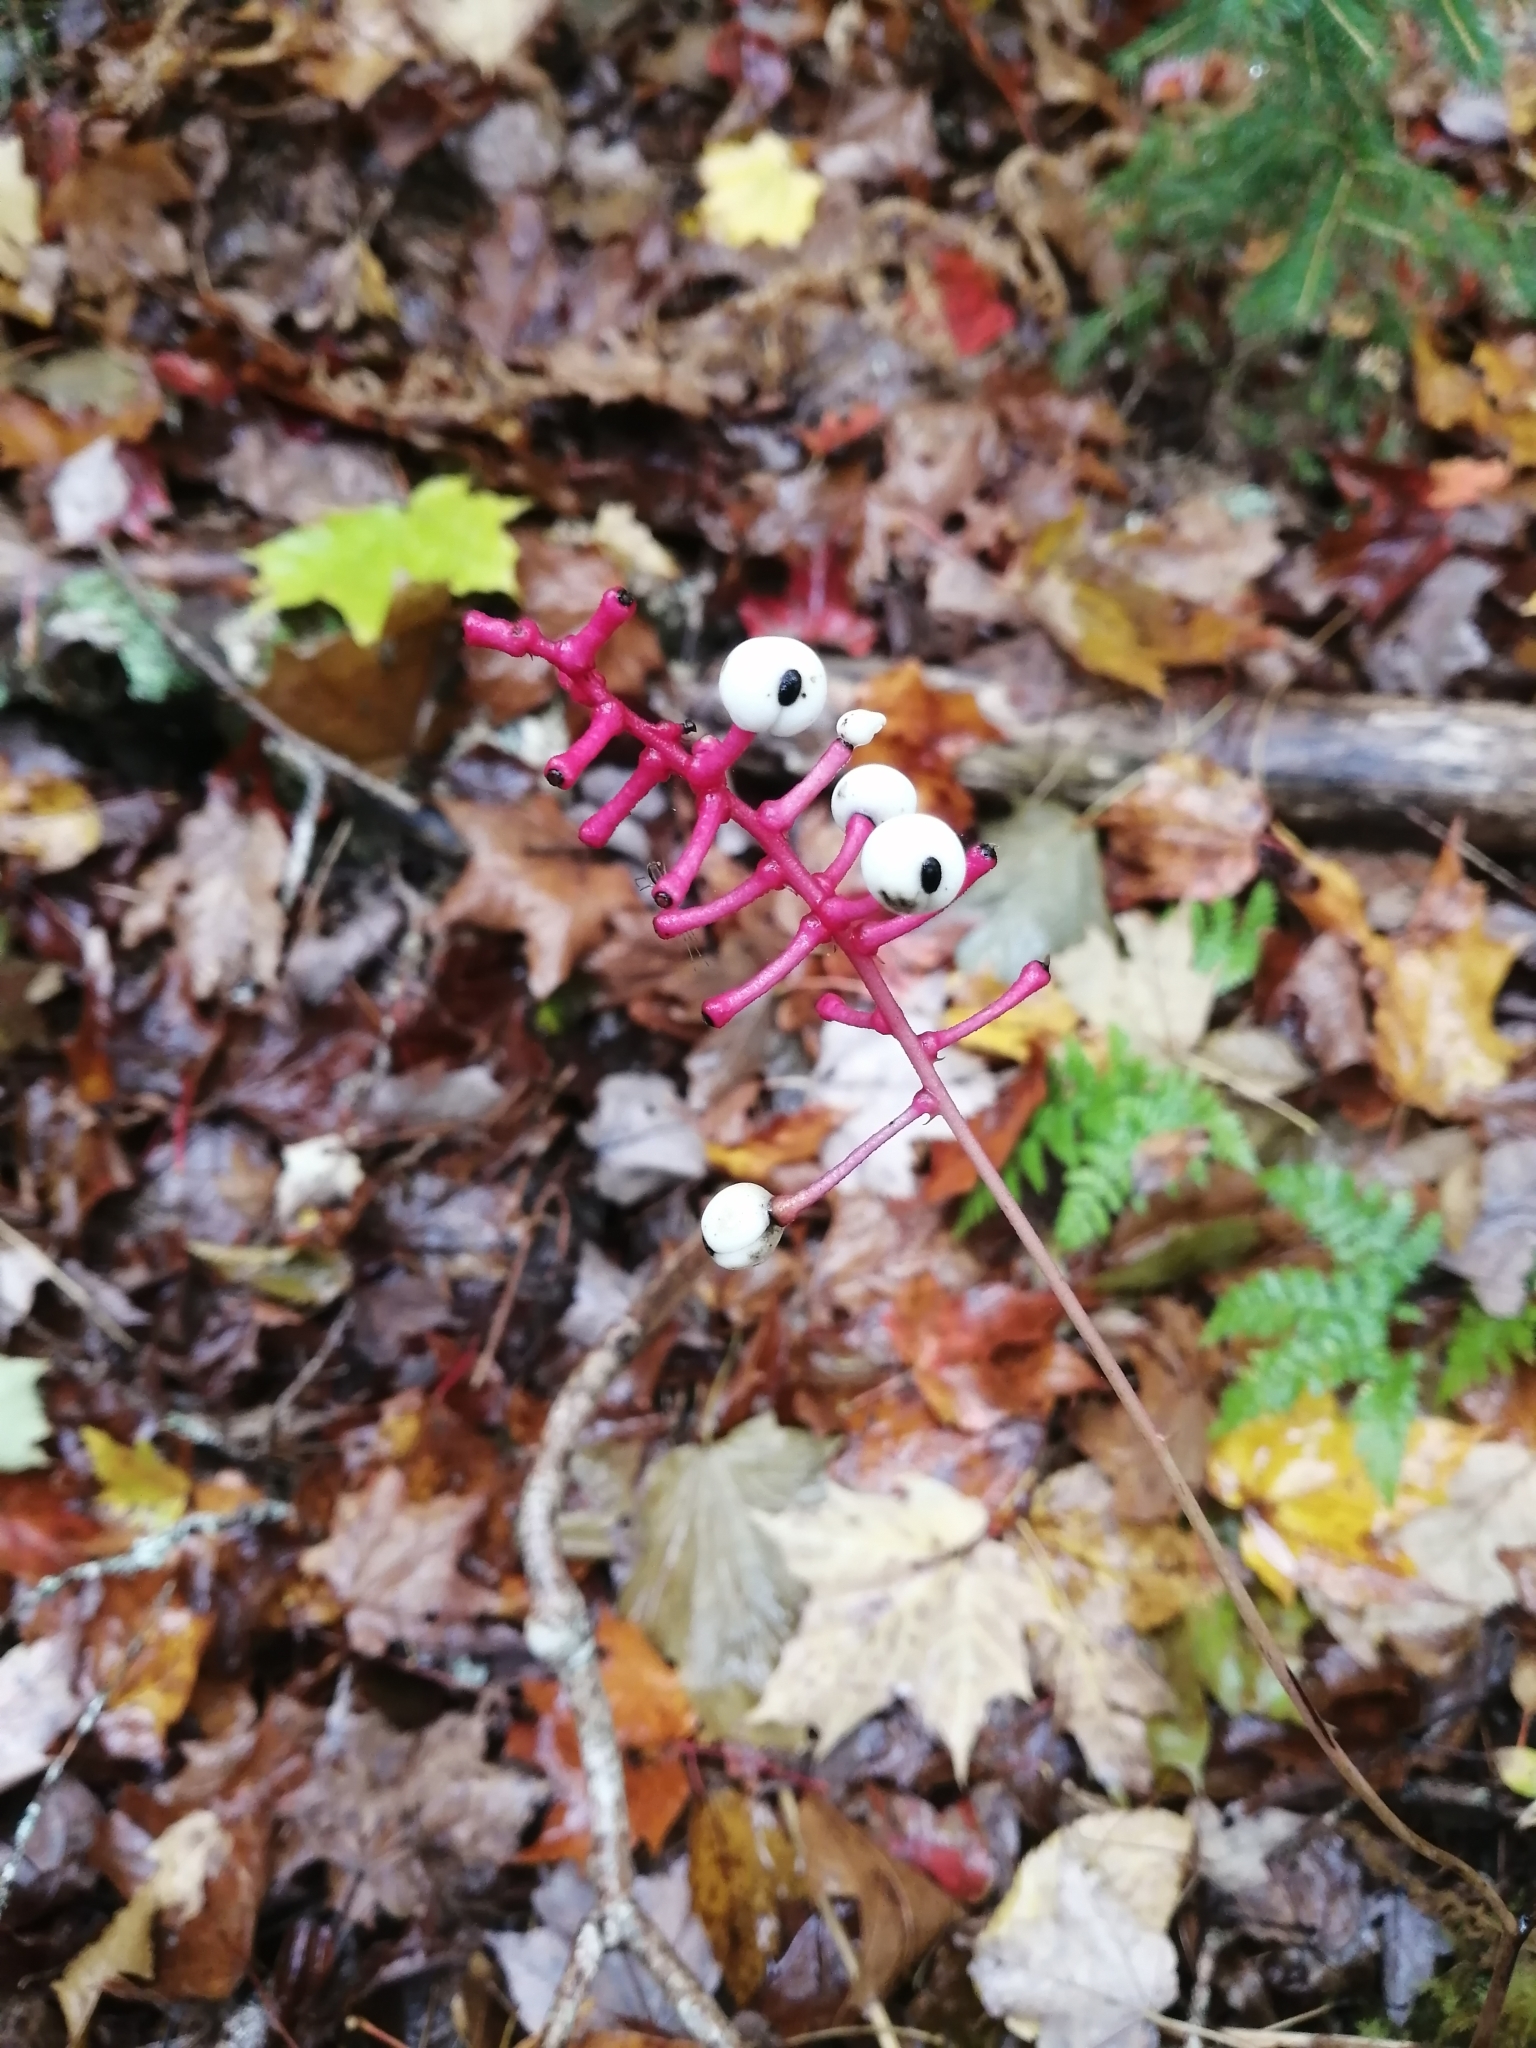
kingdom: Plantae
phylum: Tracheophyta
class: Magnoliopsida
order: Ranunculales
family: Ranunculaceae
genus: Actaea
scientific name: Actaea pachypoda
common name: Doll's-eyes
